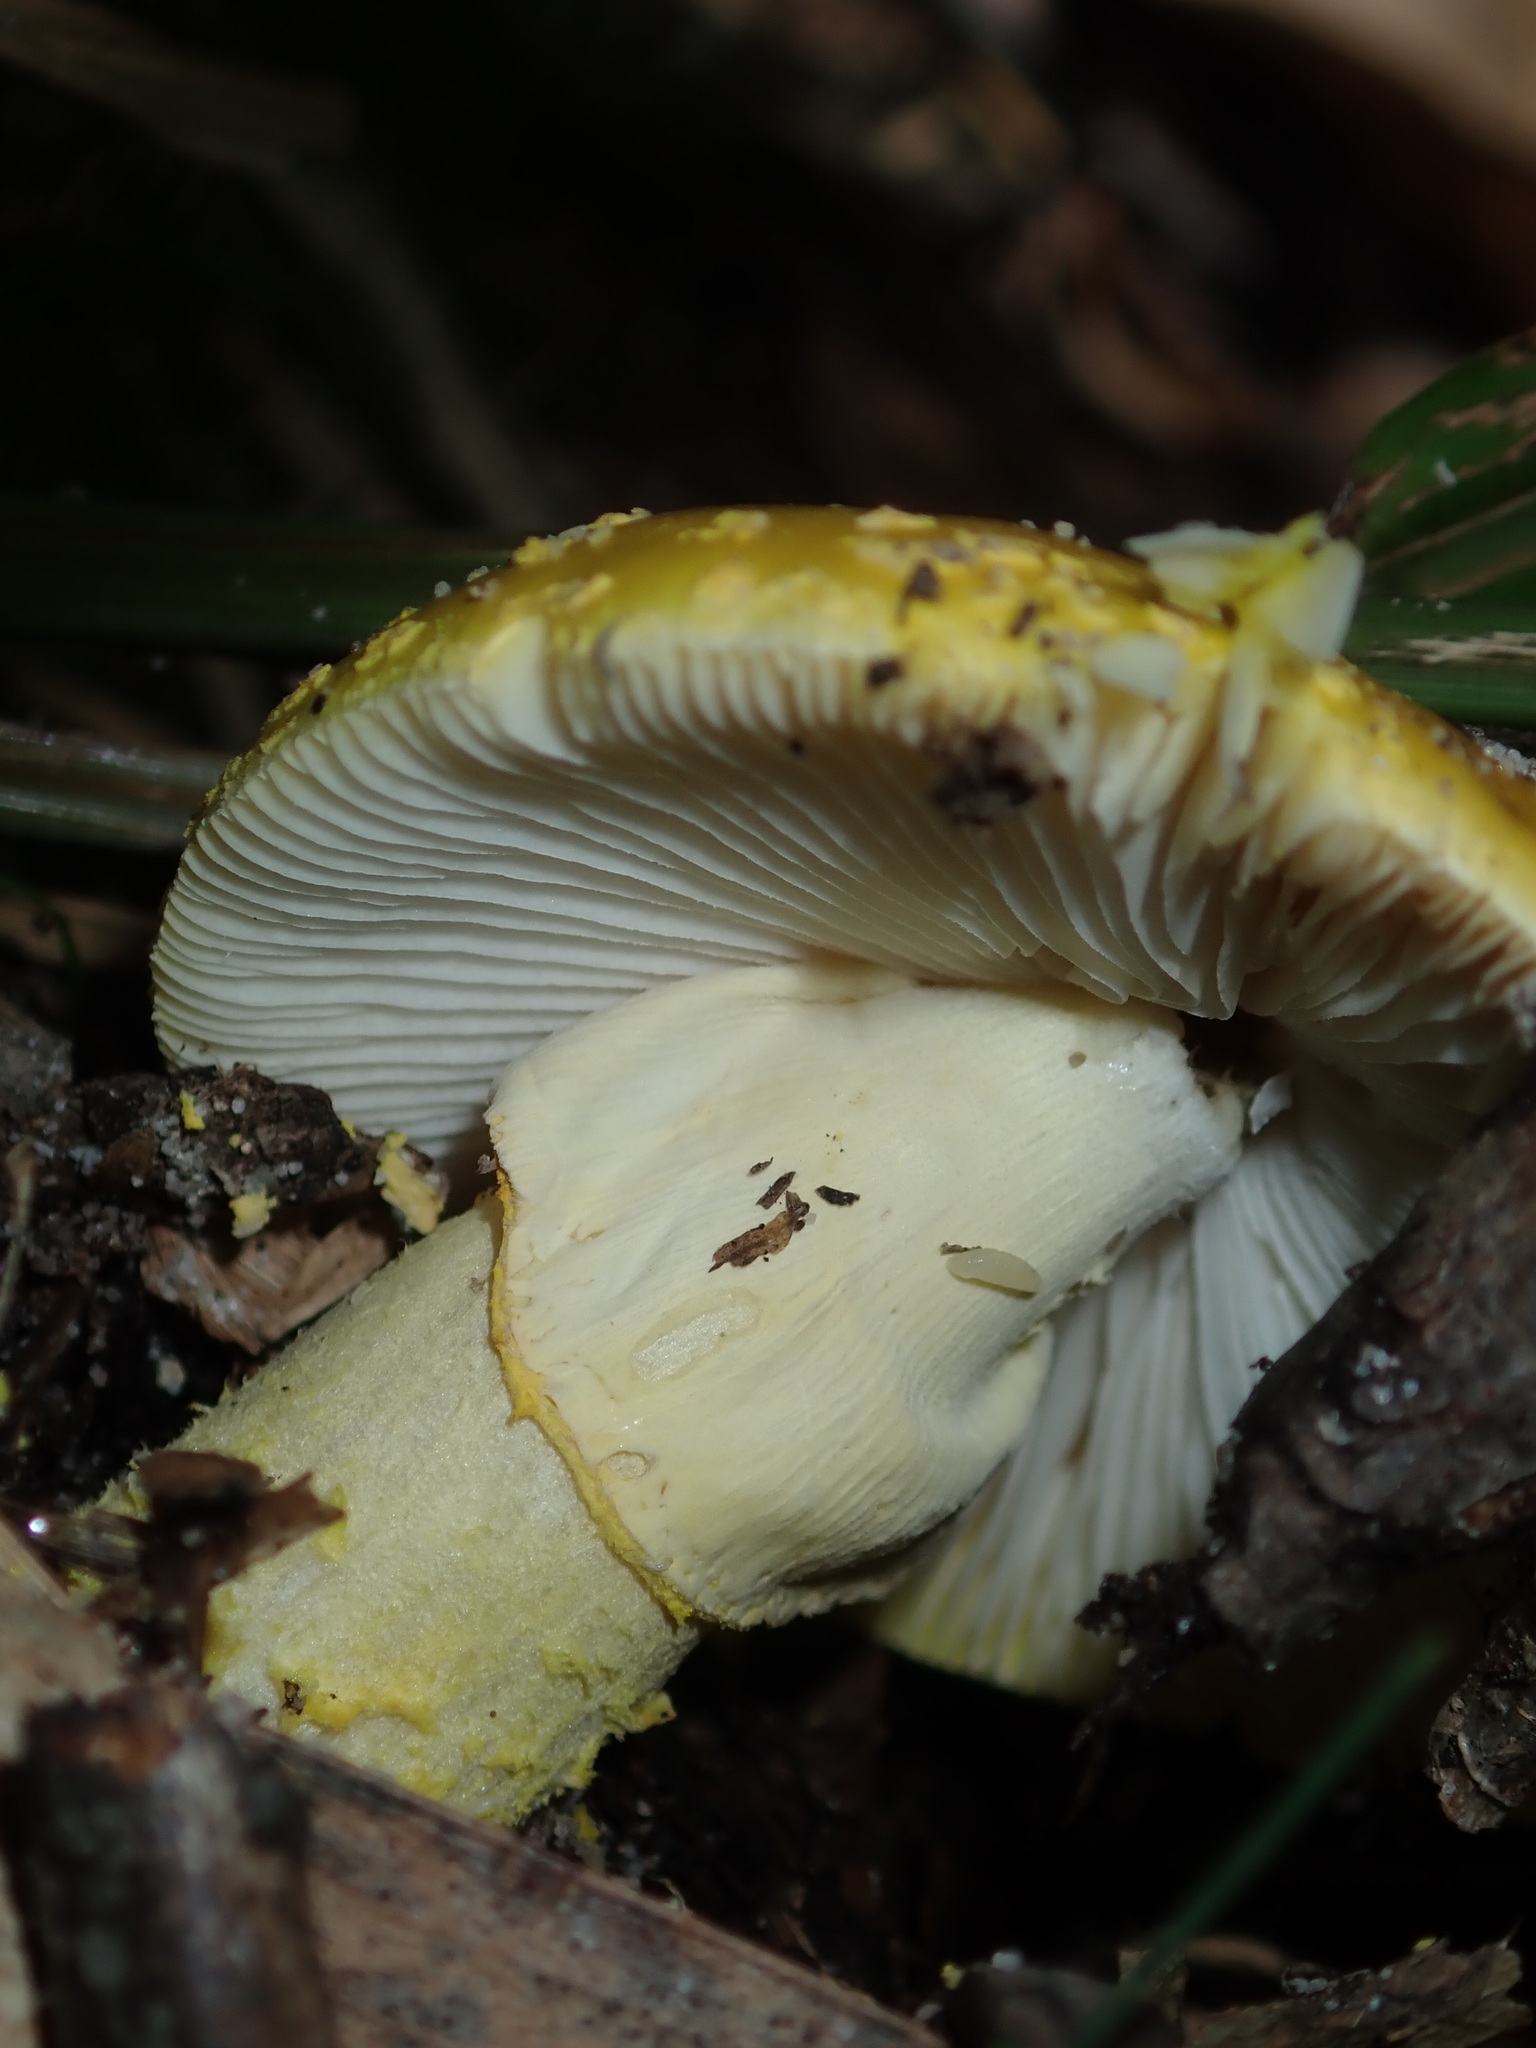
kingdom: Fungi
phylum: Basidiomycota
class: Agaricomycetes
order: Agaricales
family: Amanitaceae
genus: Amanita
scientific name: Amanita flavella
